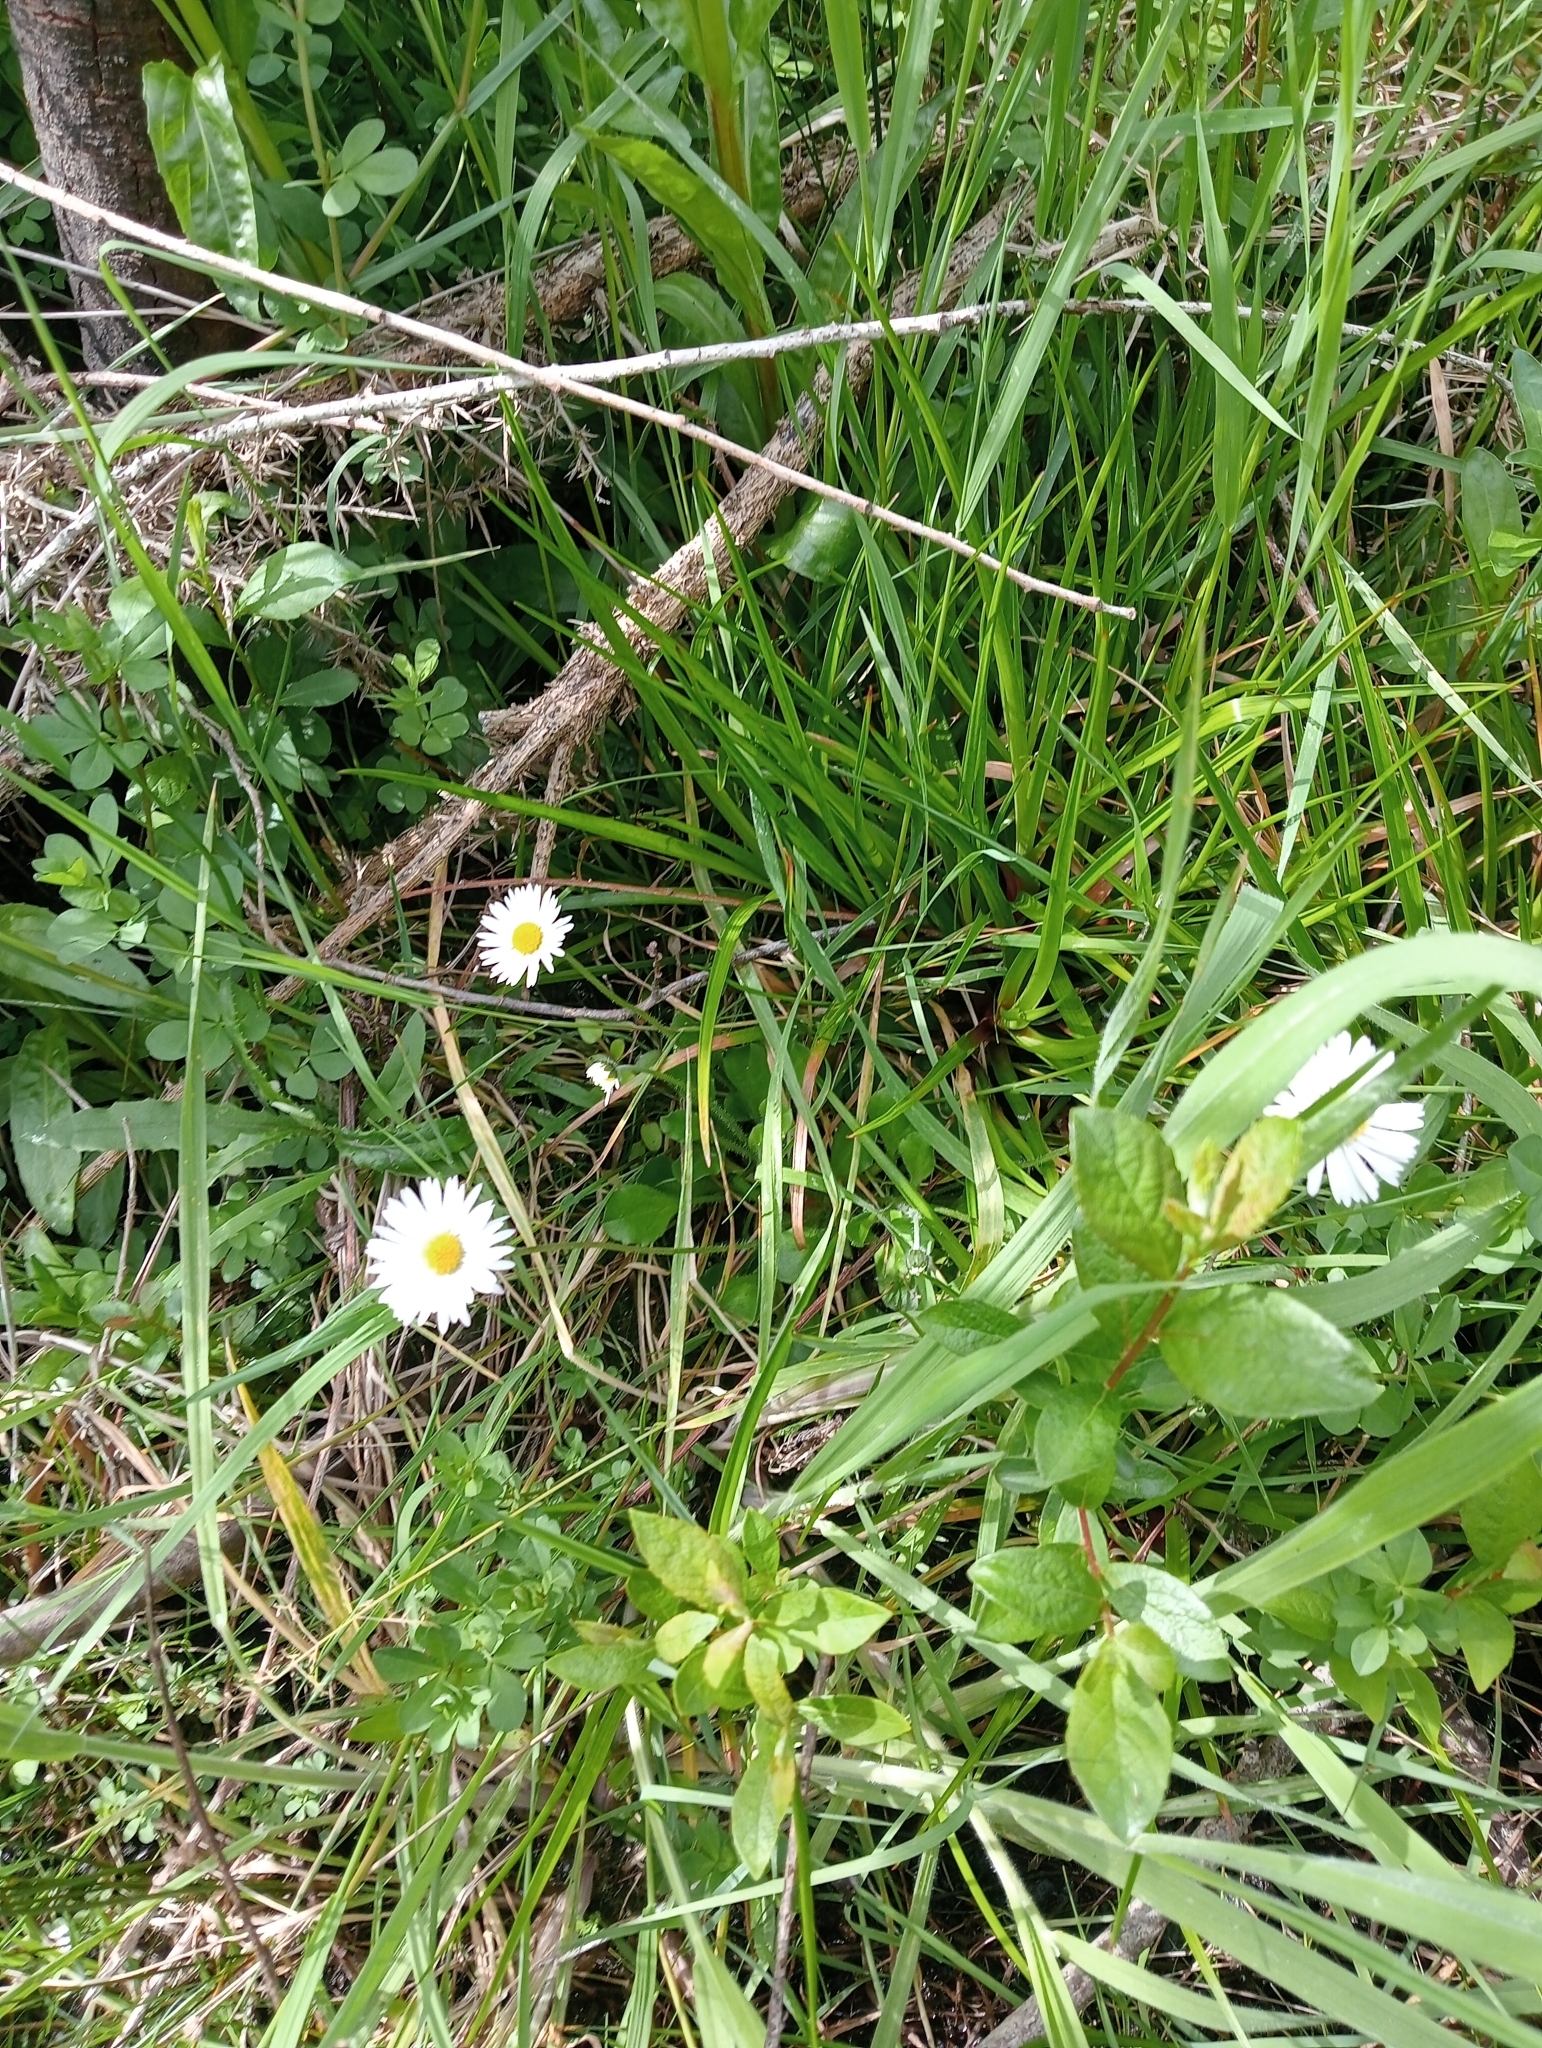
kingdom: Plantae
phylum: Tracheophyta
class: Magnoliopsida
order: Asterales
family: Asteraceae
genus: Bellis
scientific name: Bellis perennis
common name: Lawndaisy
